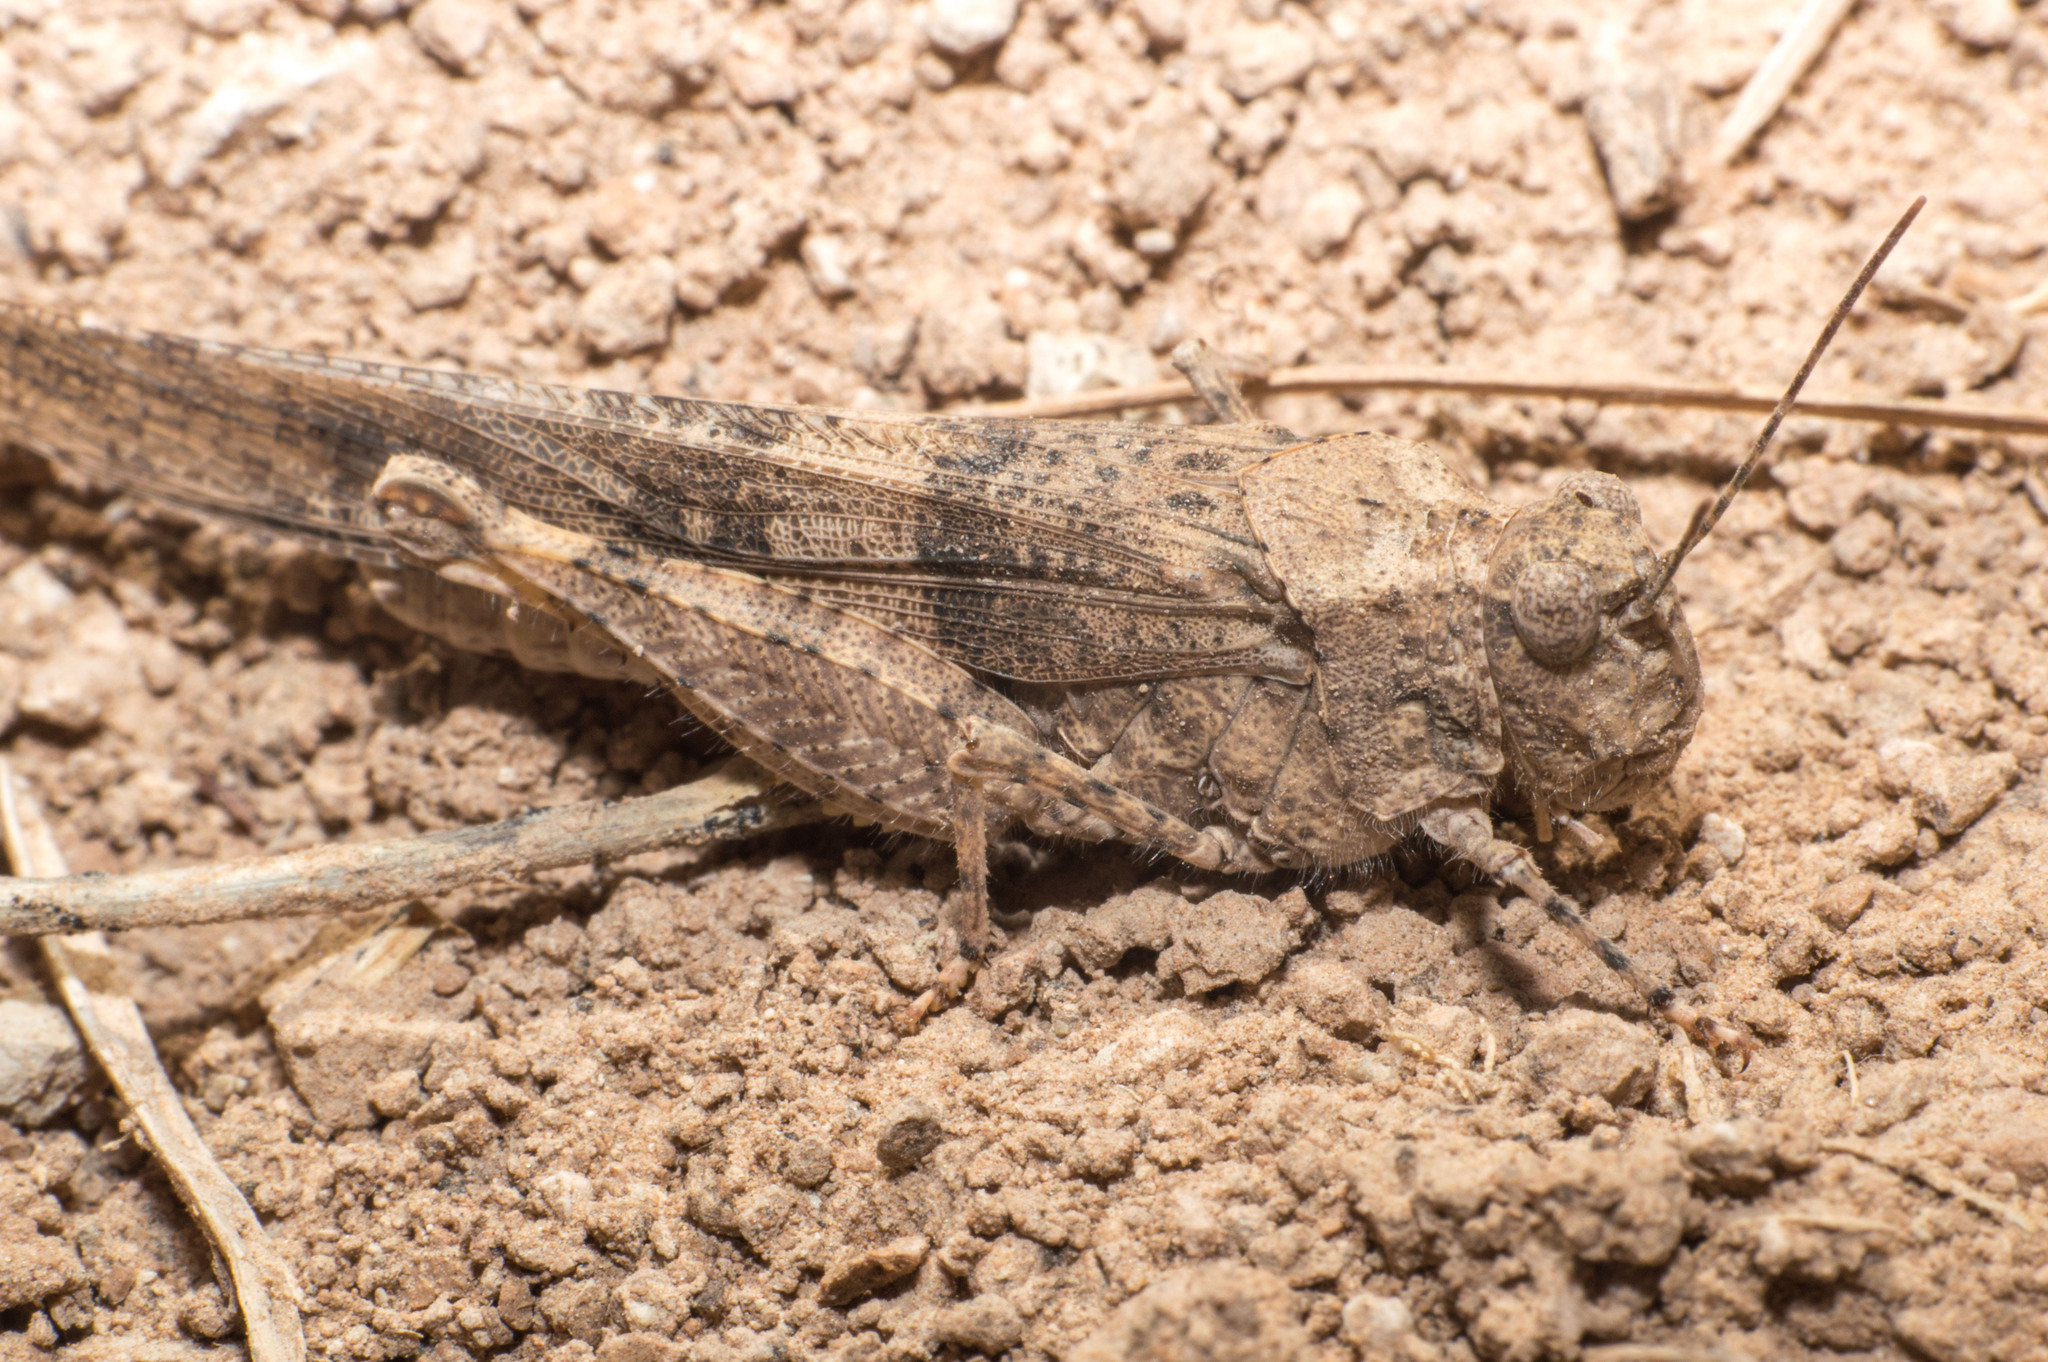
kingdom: Animalia
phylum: Arthropoda
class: Insecta
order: Orthoptera
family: Acrididae
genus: Trimerotropis
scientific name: Trimerotropis pallidipennis
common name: Pallid-winged grasshopper
